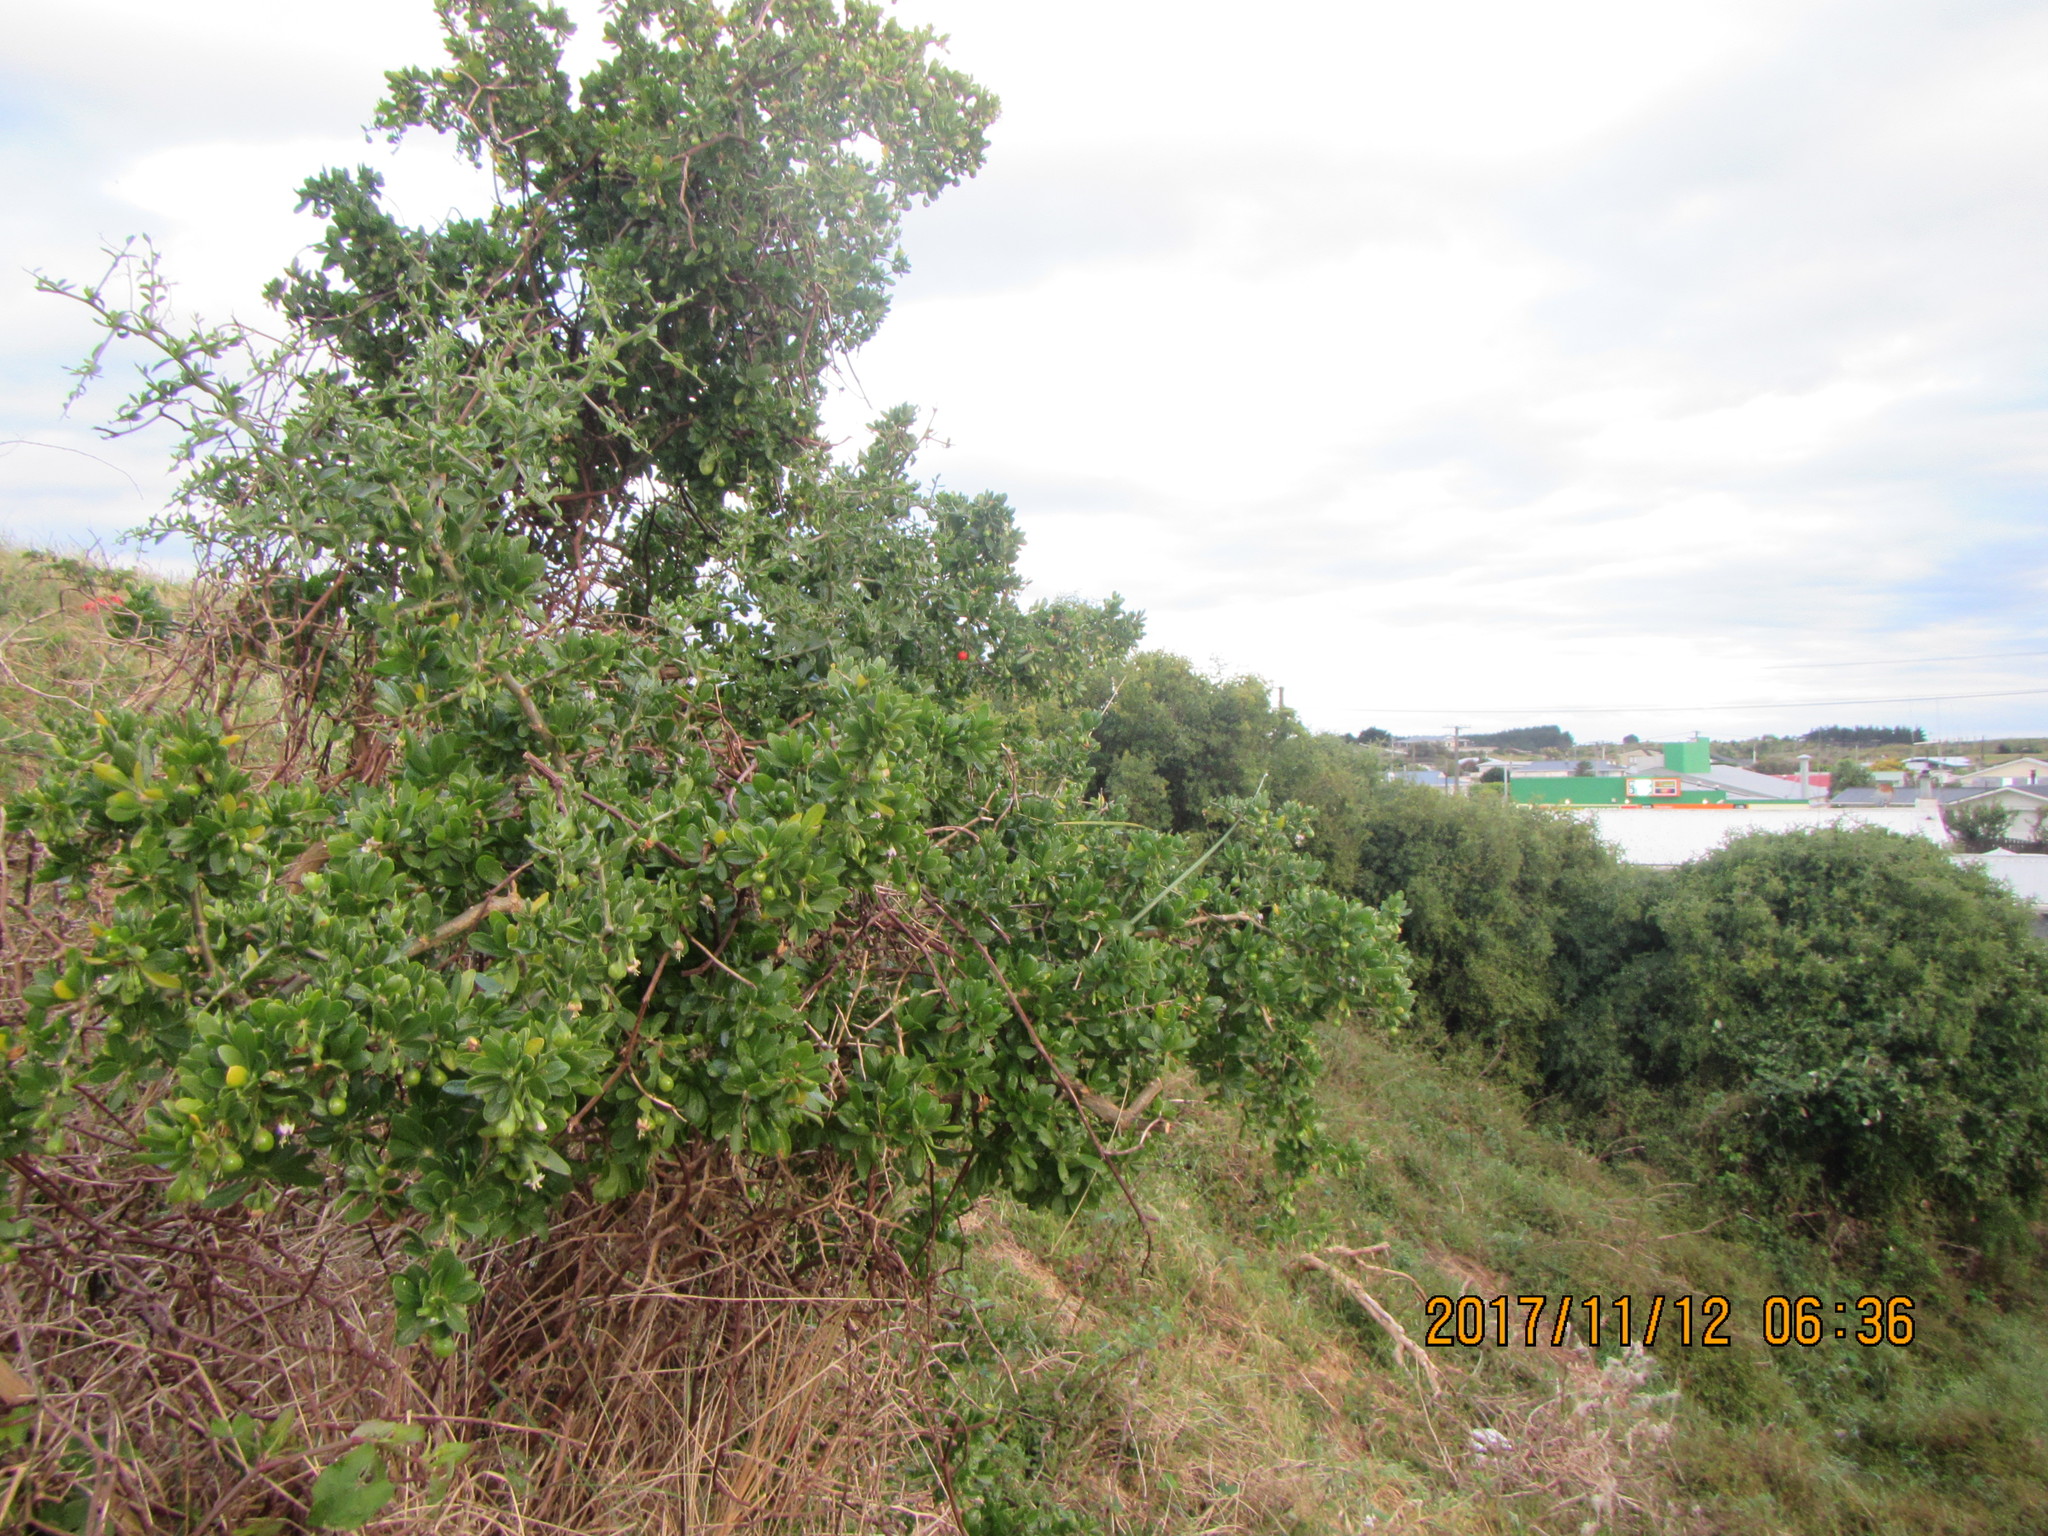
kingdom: Plantae
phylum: Tracheophyta
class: Magnoliopsida
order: Solanales
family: Solanaceae
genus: Lycium
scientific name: Lycium ferocissimum
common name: African boxthorn
